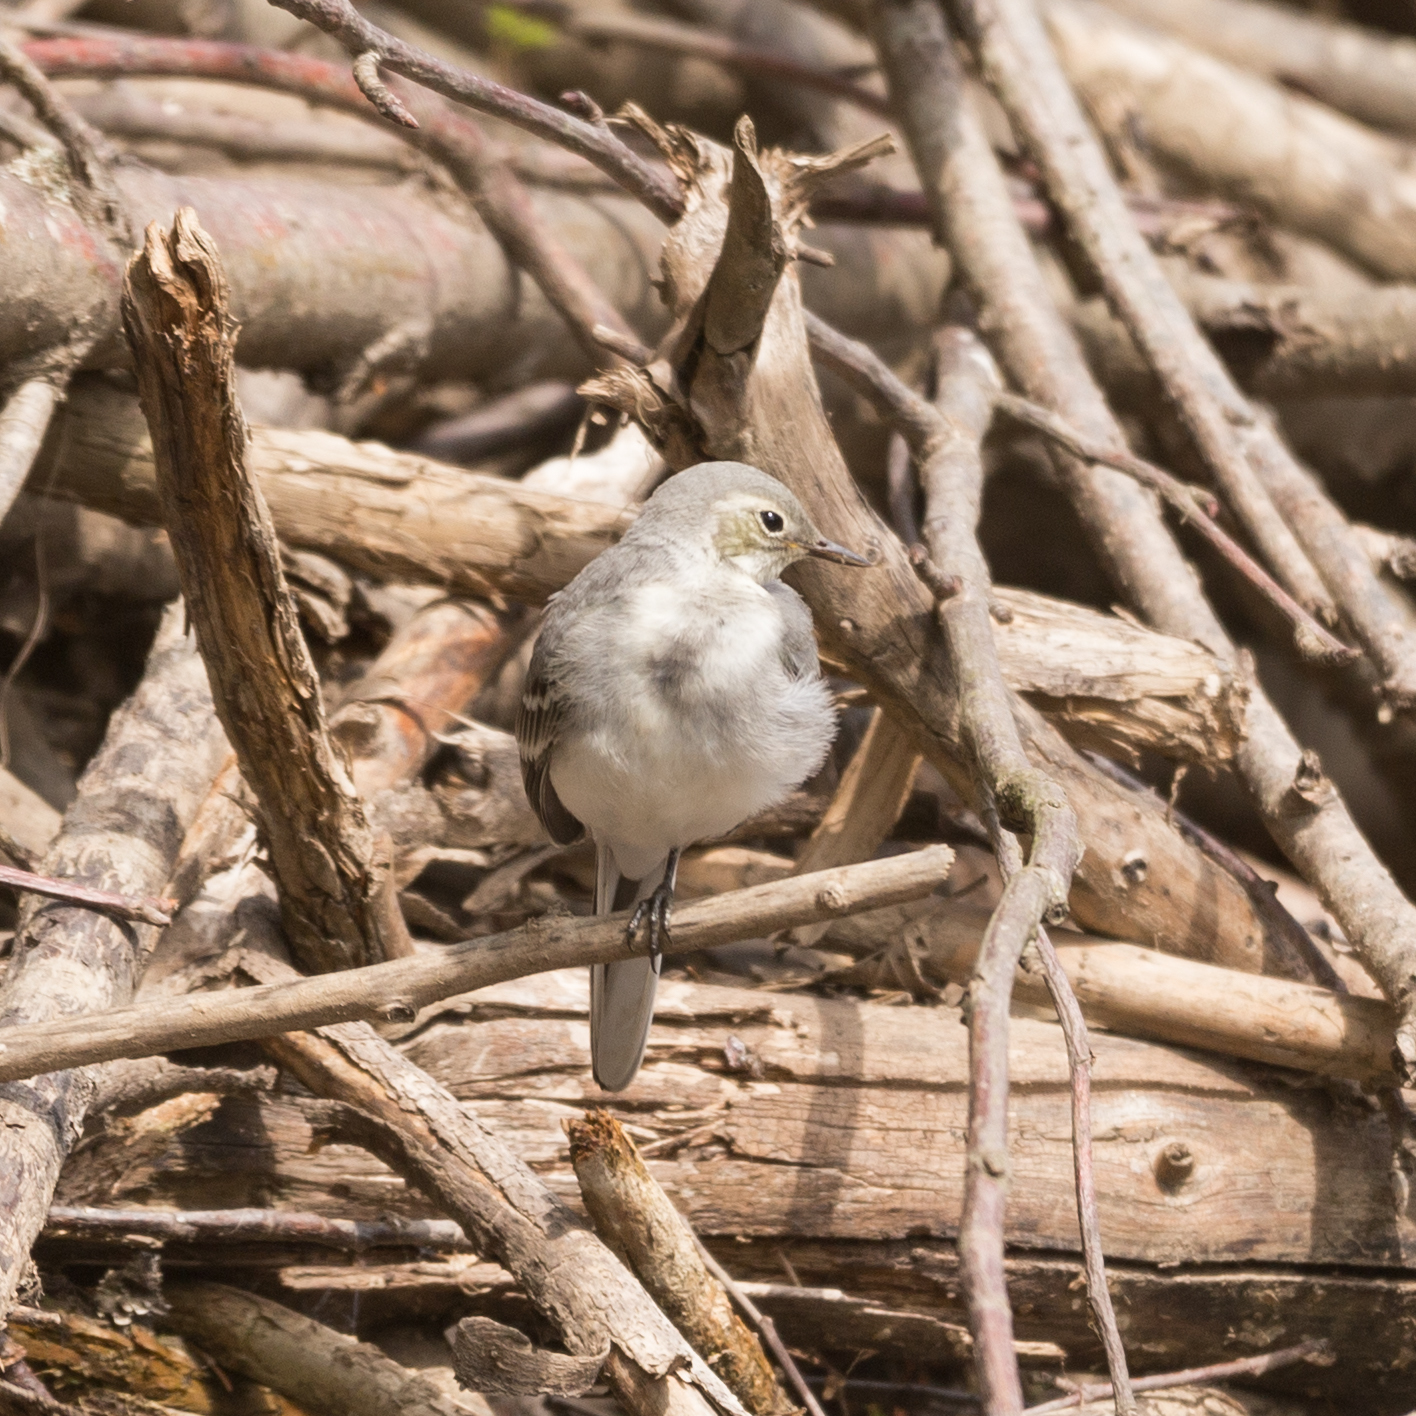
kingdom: Animalia
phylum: Chordata
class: Aves
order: Passeriformes
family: Motacillidae
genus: Motacilla
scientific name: Motacilla alba
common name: White wagtail
